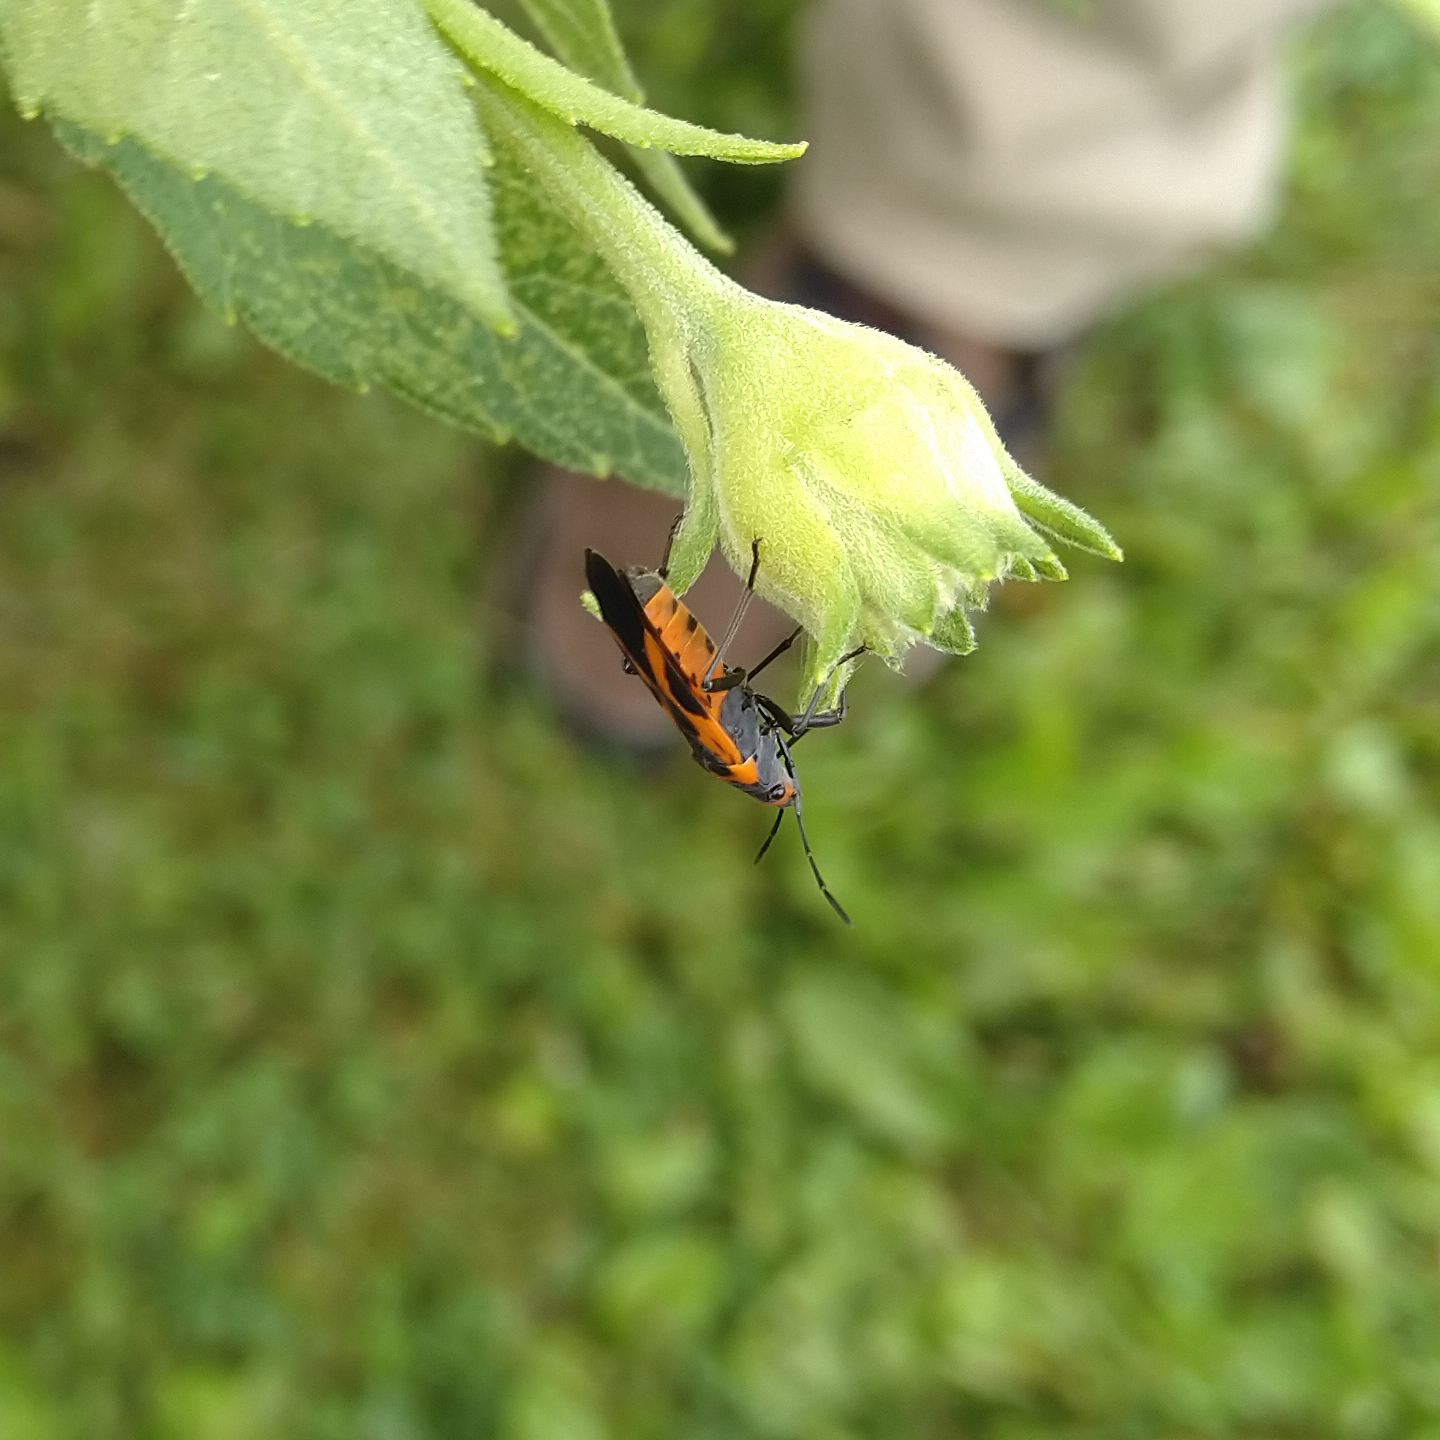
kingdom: Animalia
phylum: Arthropoda
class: Insecta
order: Hemiptera
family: Lygaeidae
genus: Lygaeus
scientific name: Lygaeus turcicus
